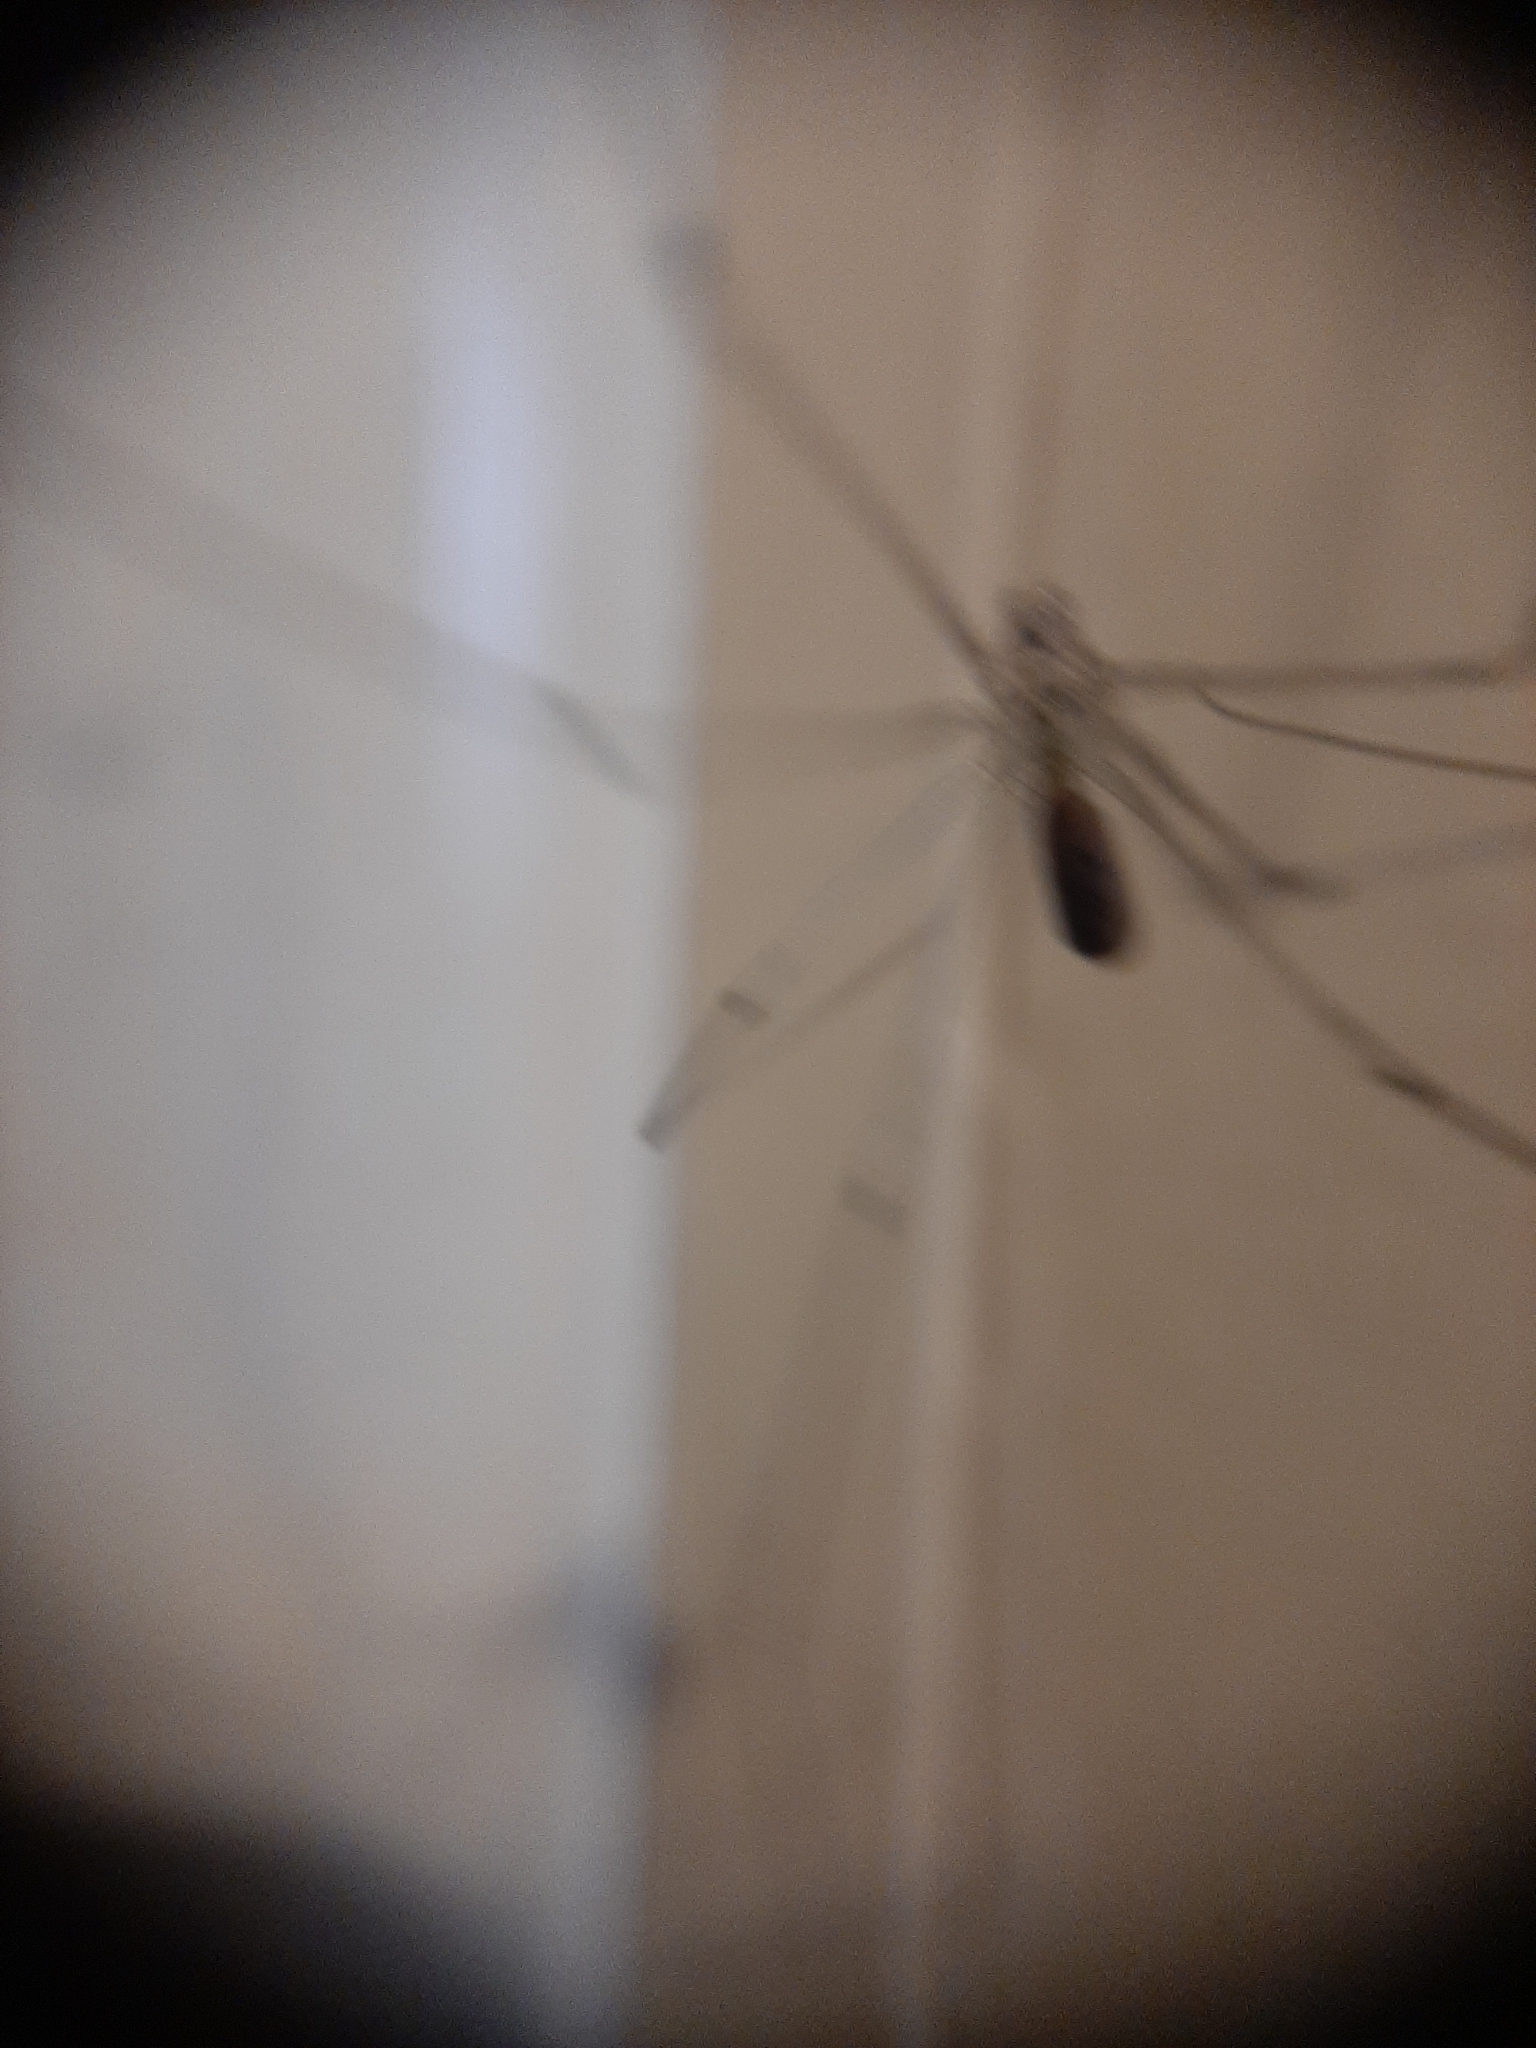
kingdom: Animalia
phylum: Arthropoda
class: Arachnida
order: Araneae
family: Pholcidae
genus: Pholcus
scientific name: Pholcus phalangioides
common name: Longbodied cellar spider
